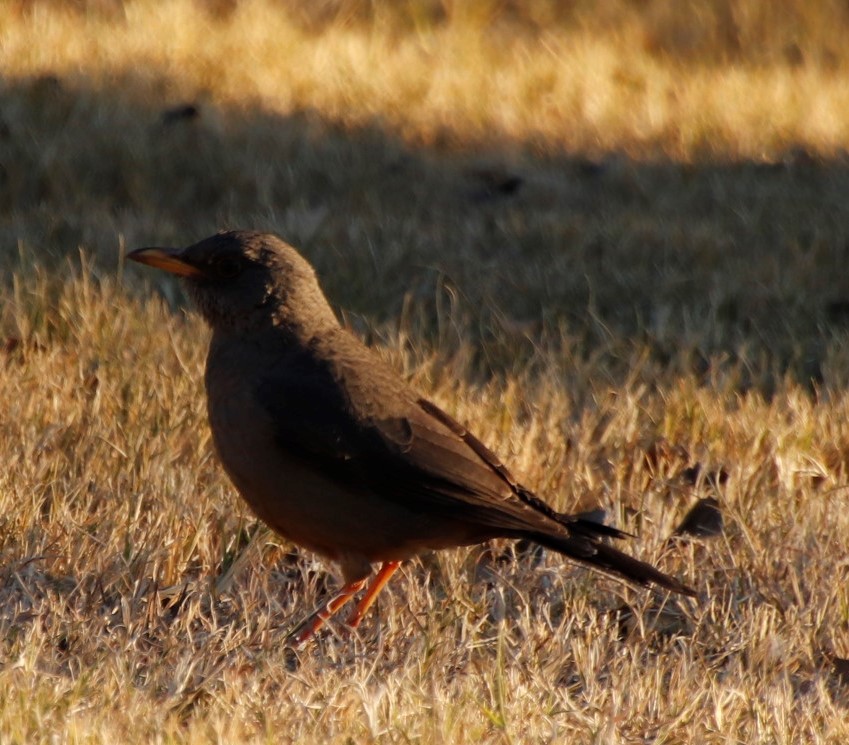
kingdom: Animalia
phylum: Chordata
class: Aves
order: Passeriformes
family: Turdidae
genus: Turdus
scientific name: Turdus olivaceus
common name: Olive thrush
